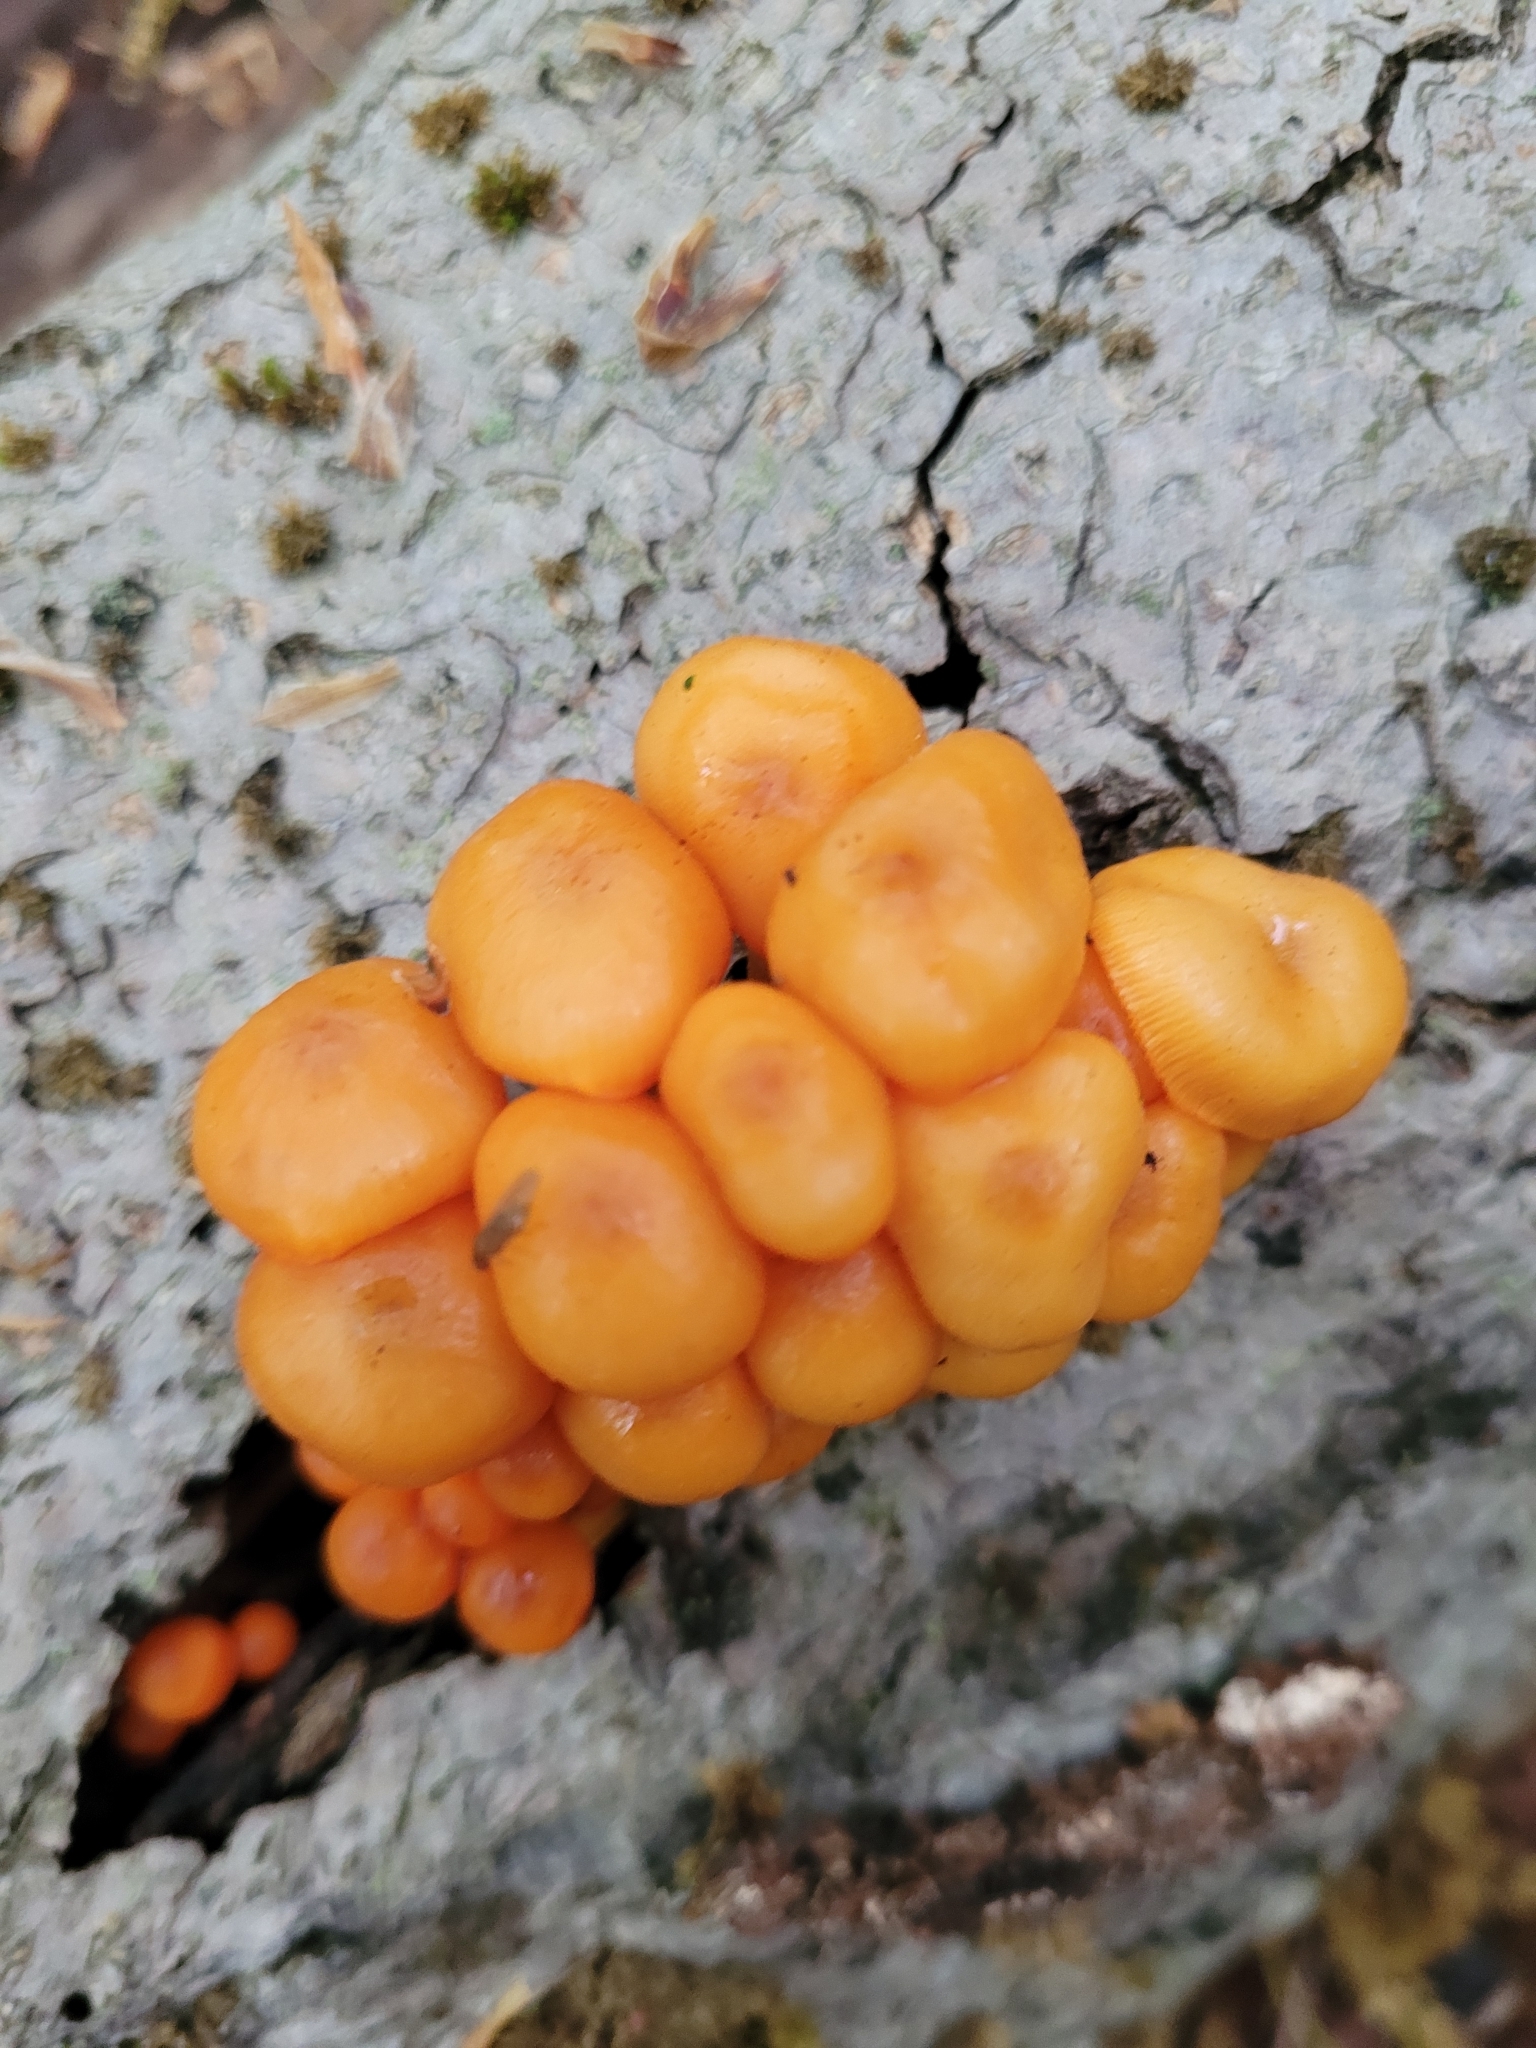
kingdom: Fungi
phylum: Basidiomycota
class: Agaricomycetes
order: Agaricales
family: Mycenaceae
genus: Mycena
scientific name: Mycena leaiana
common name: Orange mycena
